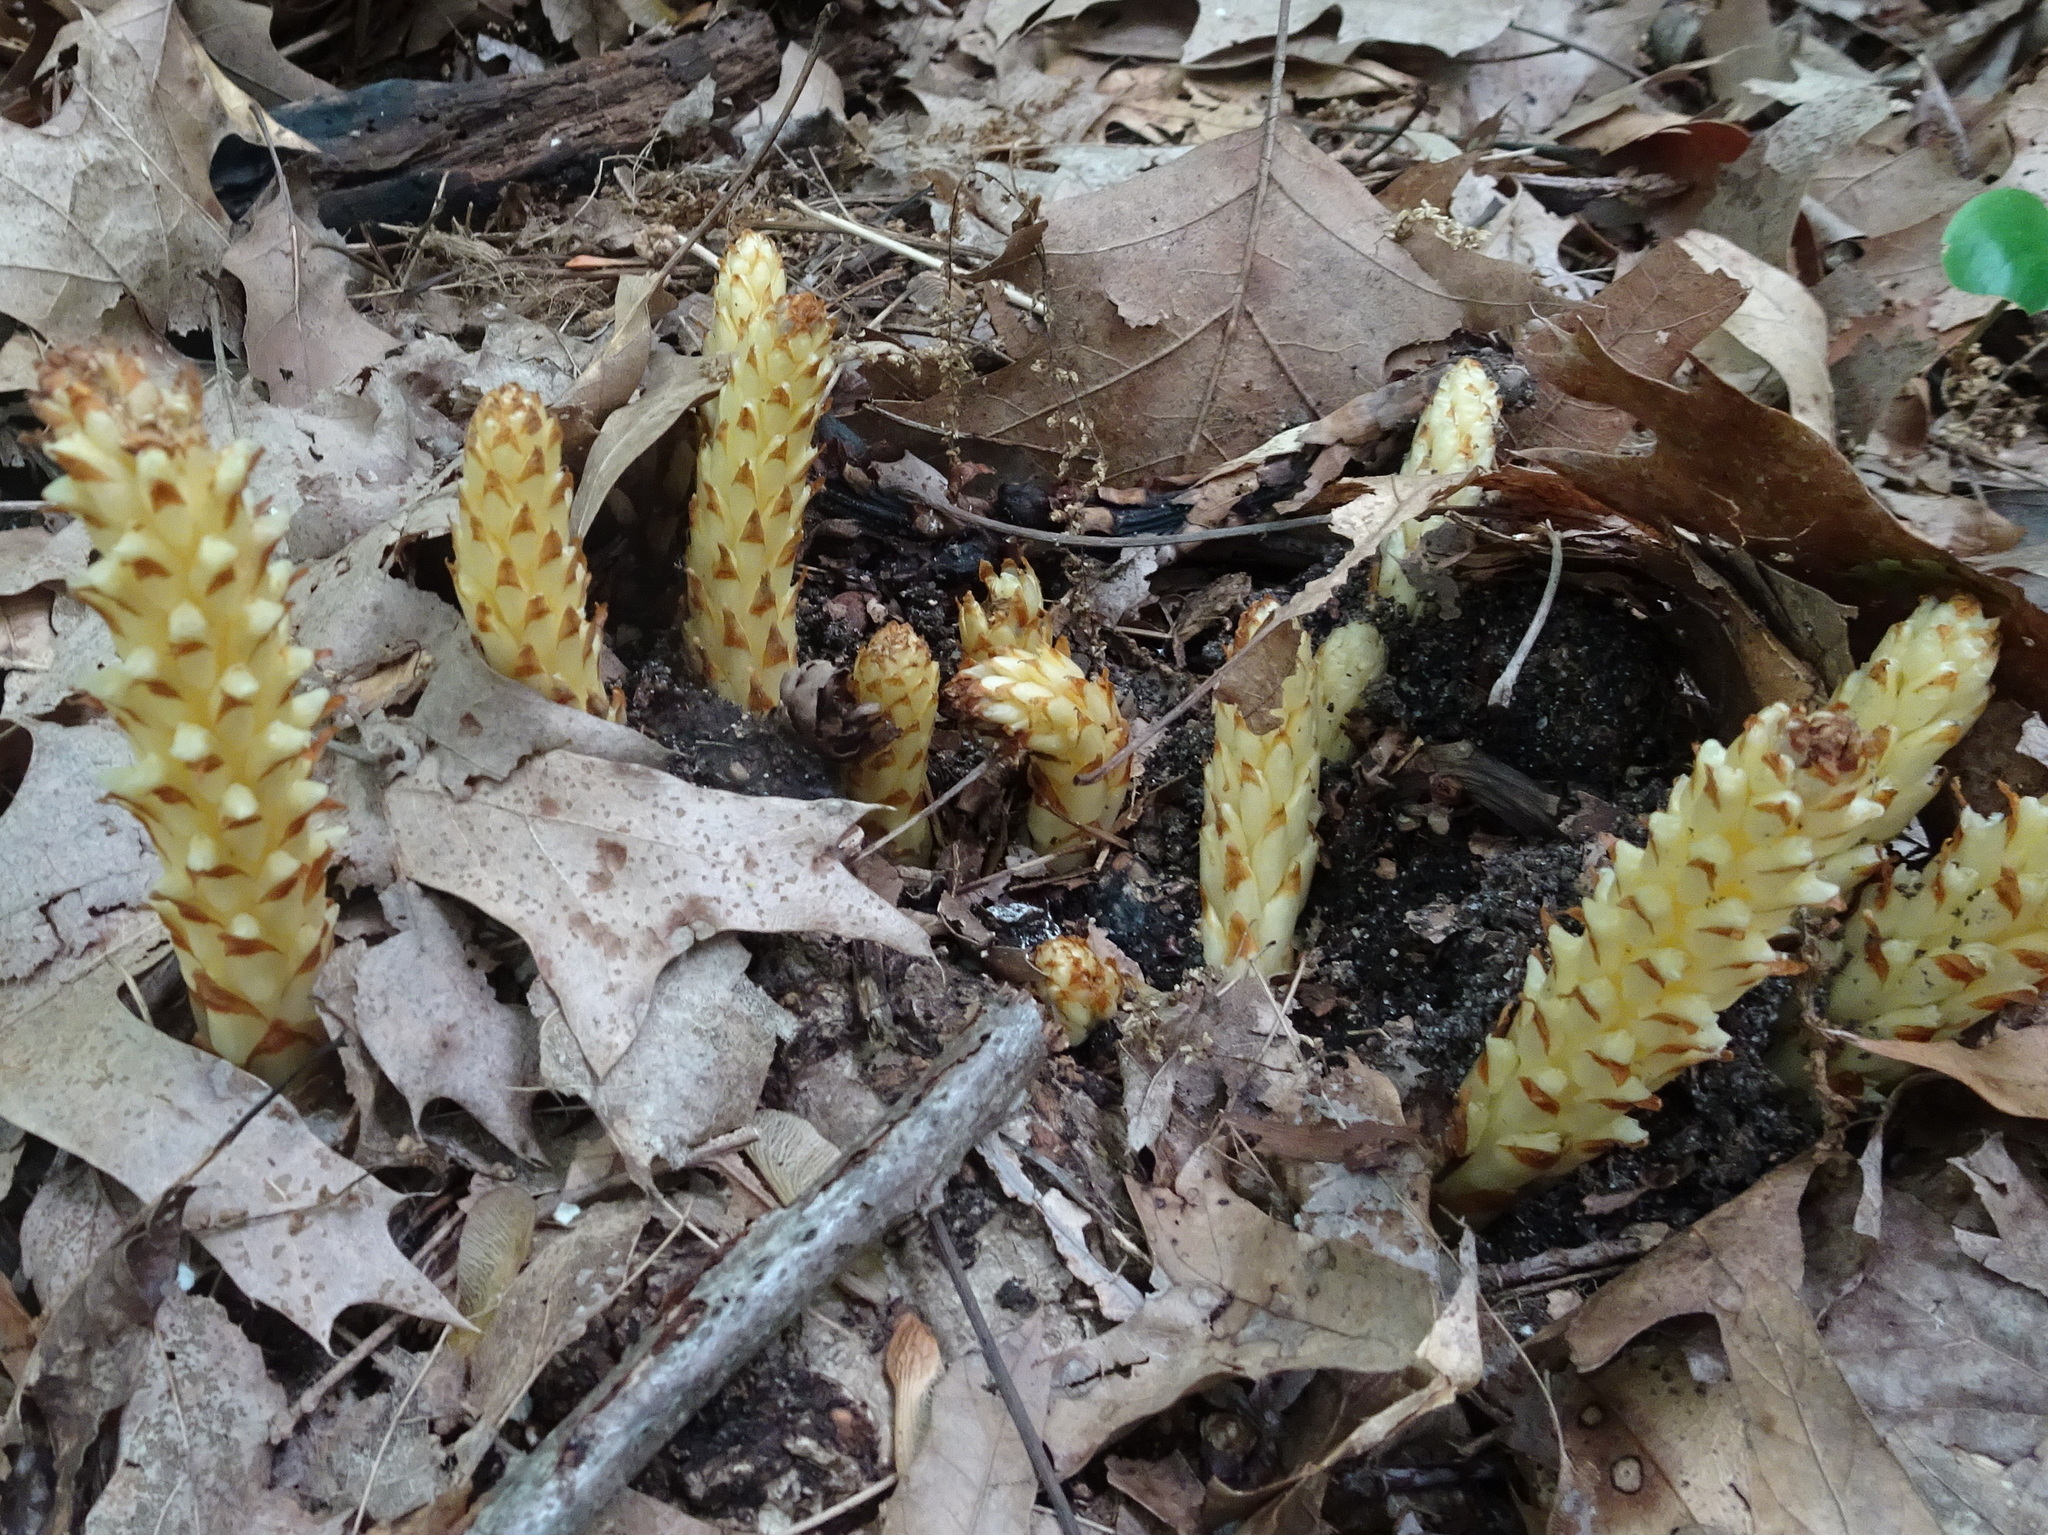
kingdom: Plantae
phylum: Tracheophyta
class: Magnoliopsida
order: Lamiales
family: Orobanchaceae
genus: Conopholis
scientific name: Conopholis americana
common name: American cancer-root
